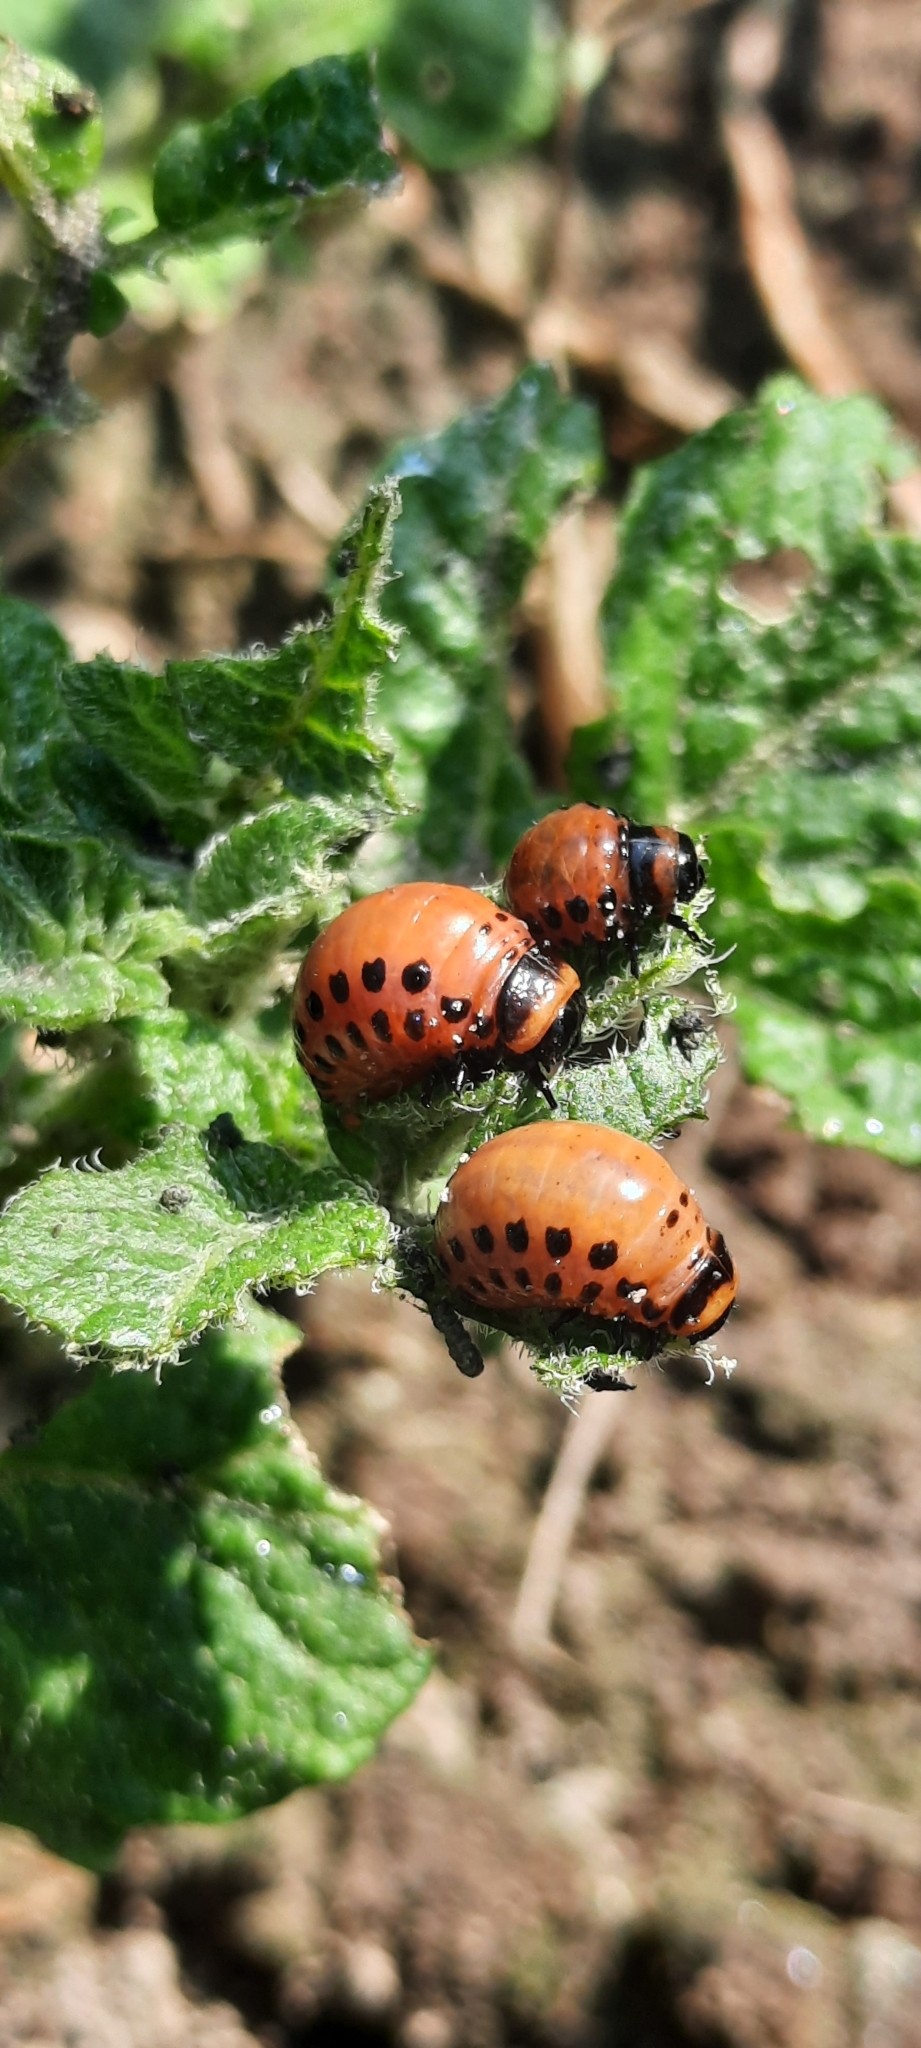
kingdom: Animalia
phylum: Arthropoda
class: Insecta
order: Coleoptera
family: Chrysomelidae
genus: Leptinotarsa
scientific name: Leptinotarsa decemlineata
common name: Colorado potato beetle
